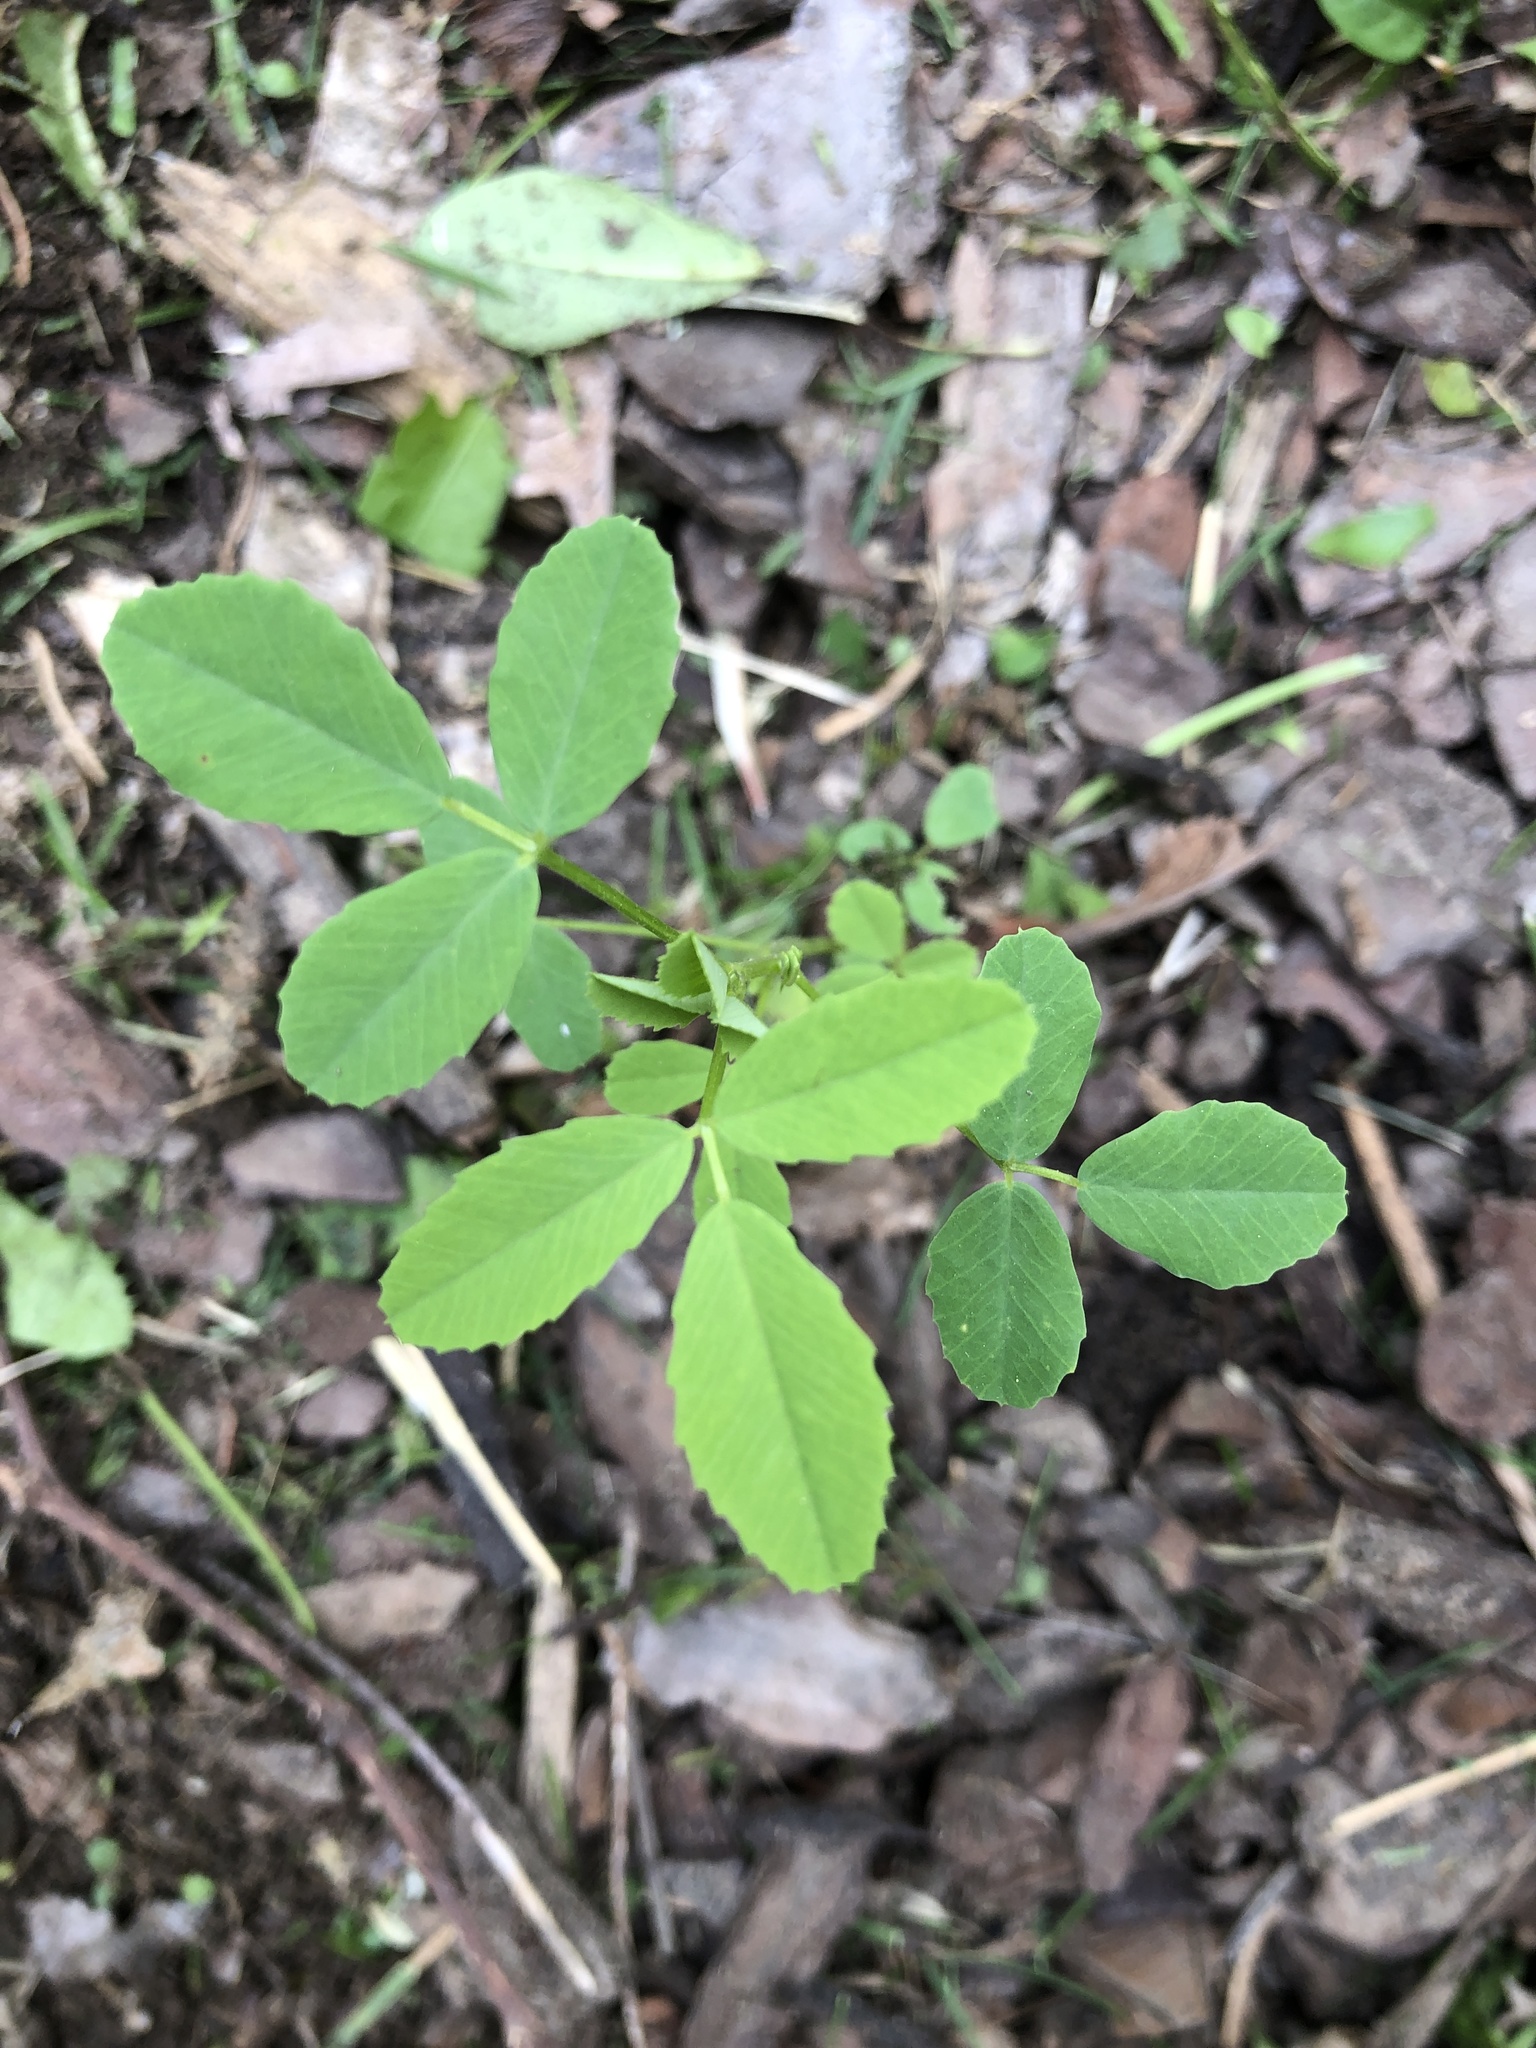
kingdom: Plantae
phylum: Tracheophyta
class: Magnoliopsida
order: Fabales
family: Fabaceae
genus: Melilotus
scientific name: Melilotus albus
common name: White melilot
